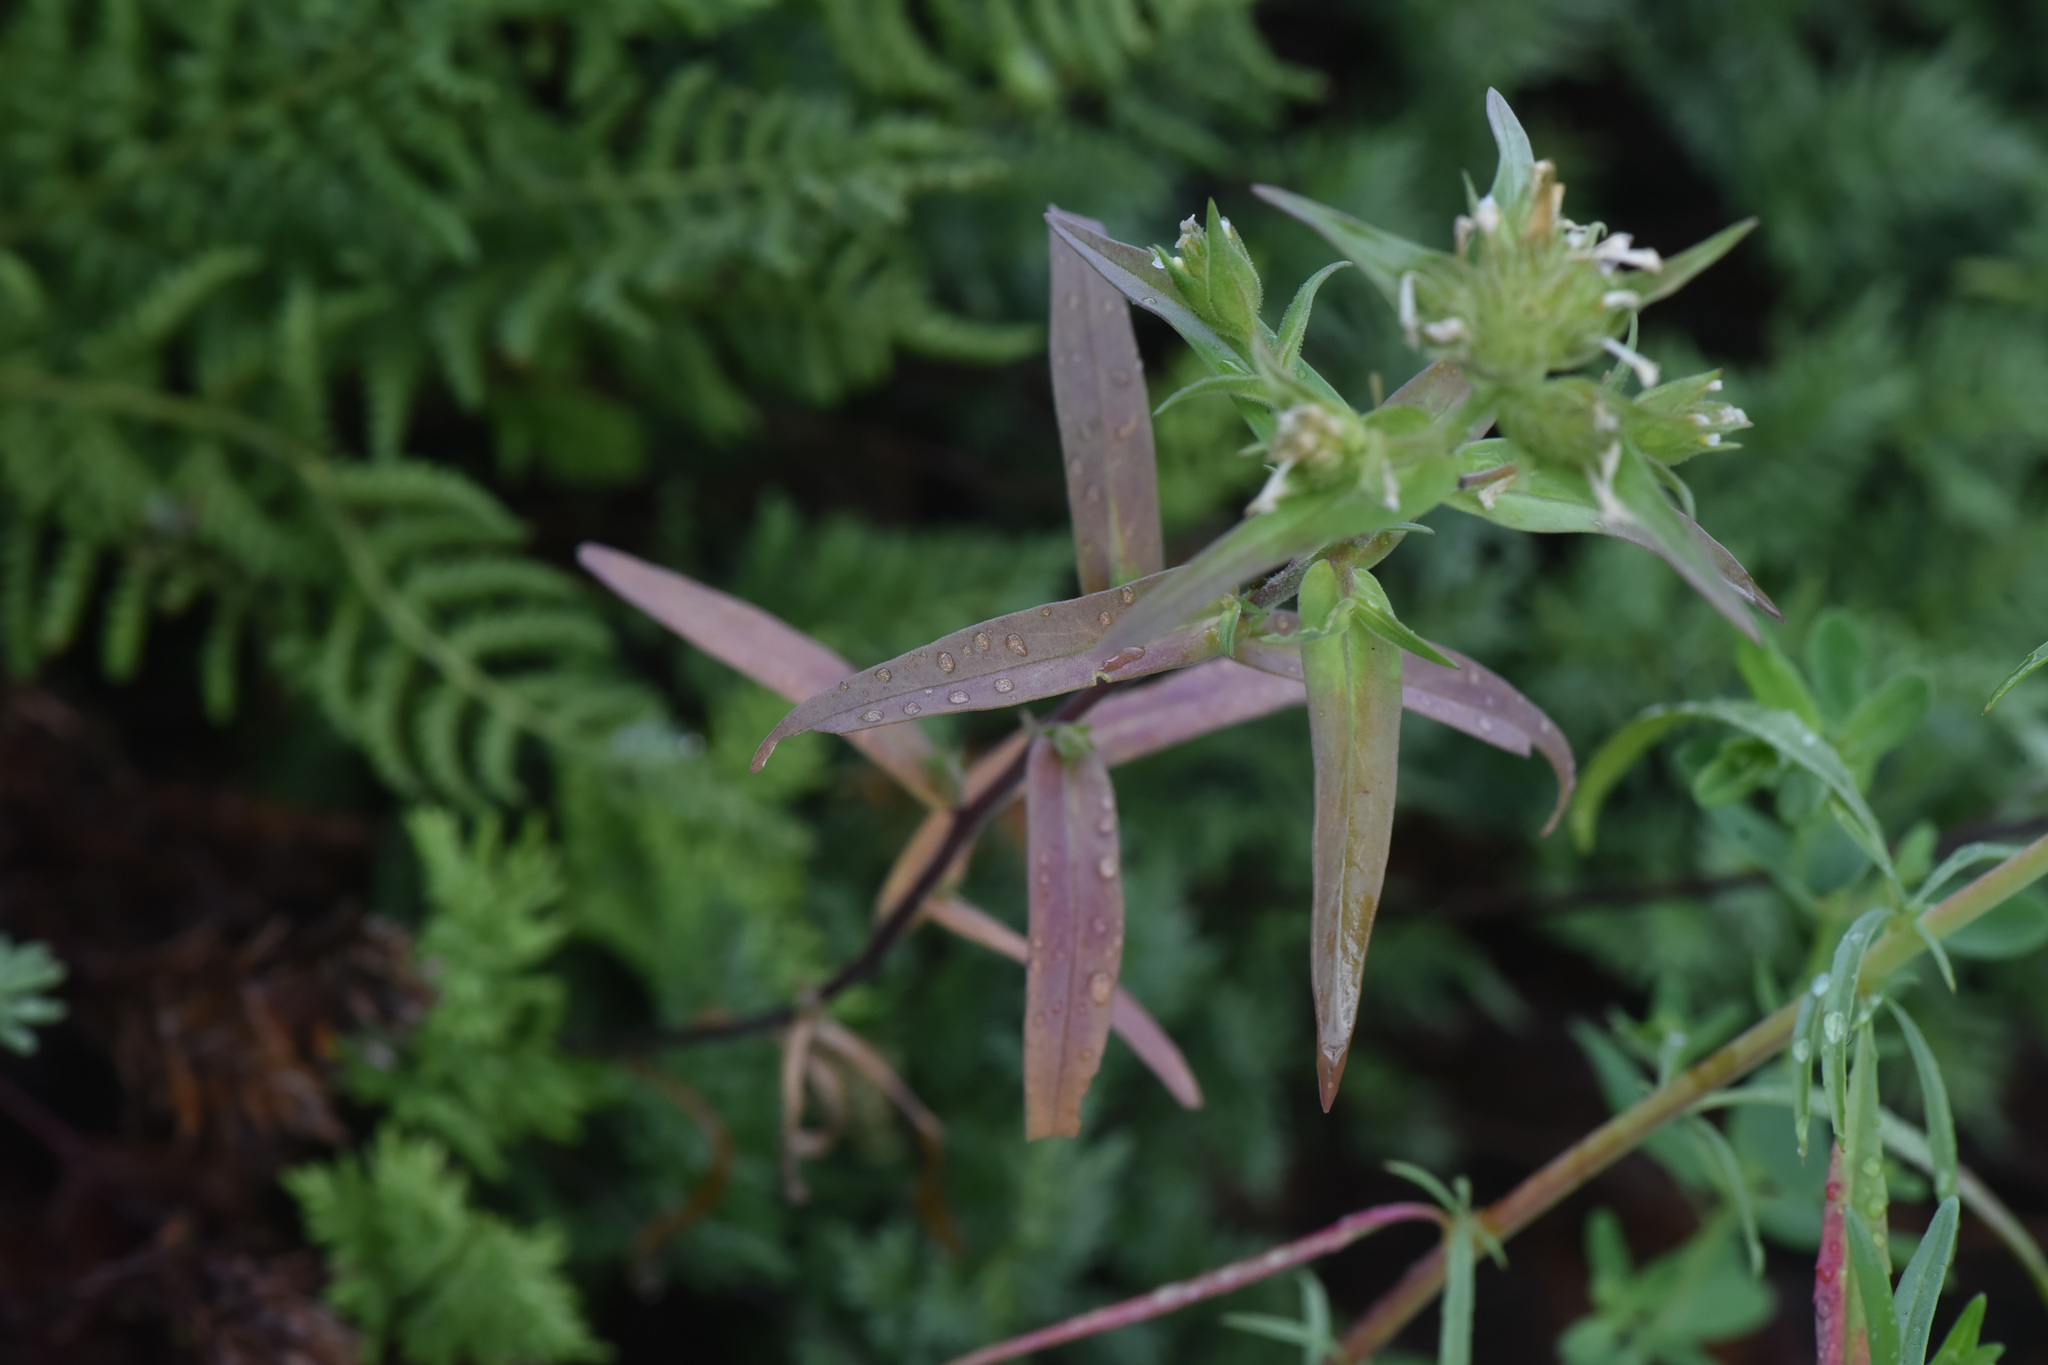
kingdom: Plantae
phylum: Tracheophyta
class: Magnoliopsida
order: Ericales
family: Polemoniaceae
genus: Collomia
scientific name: Collomia linearis
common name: Tiny trumpet
